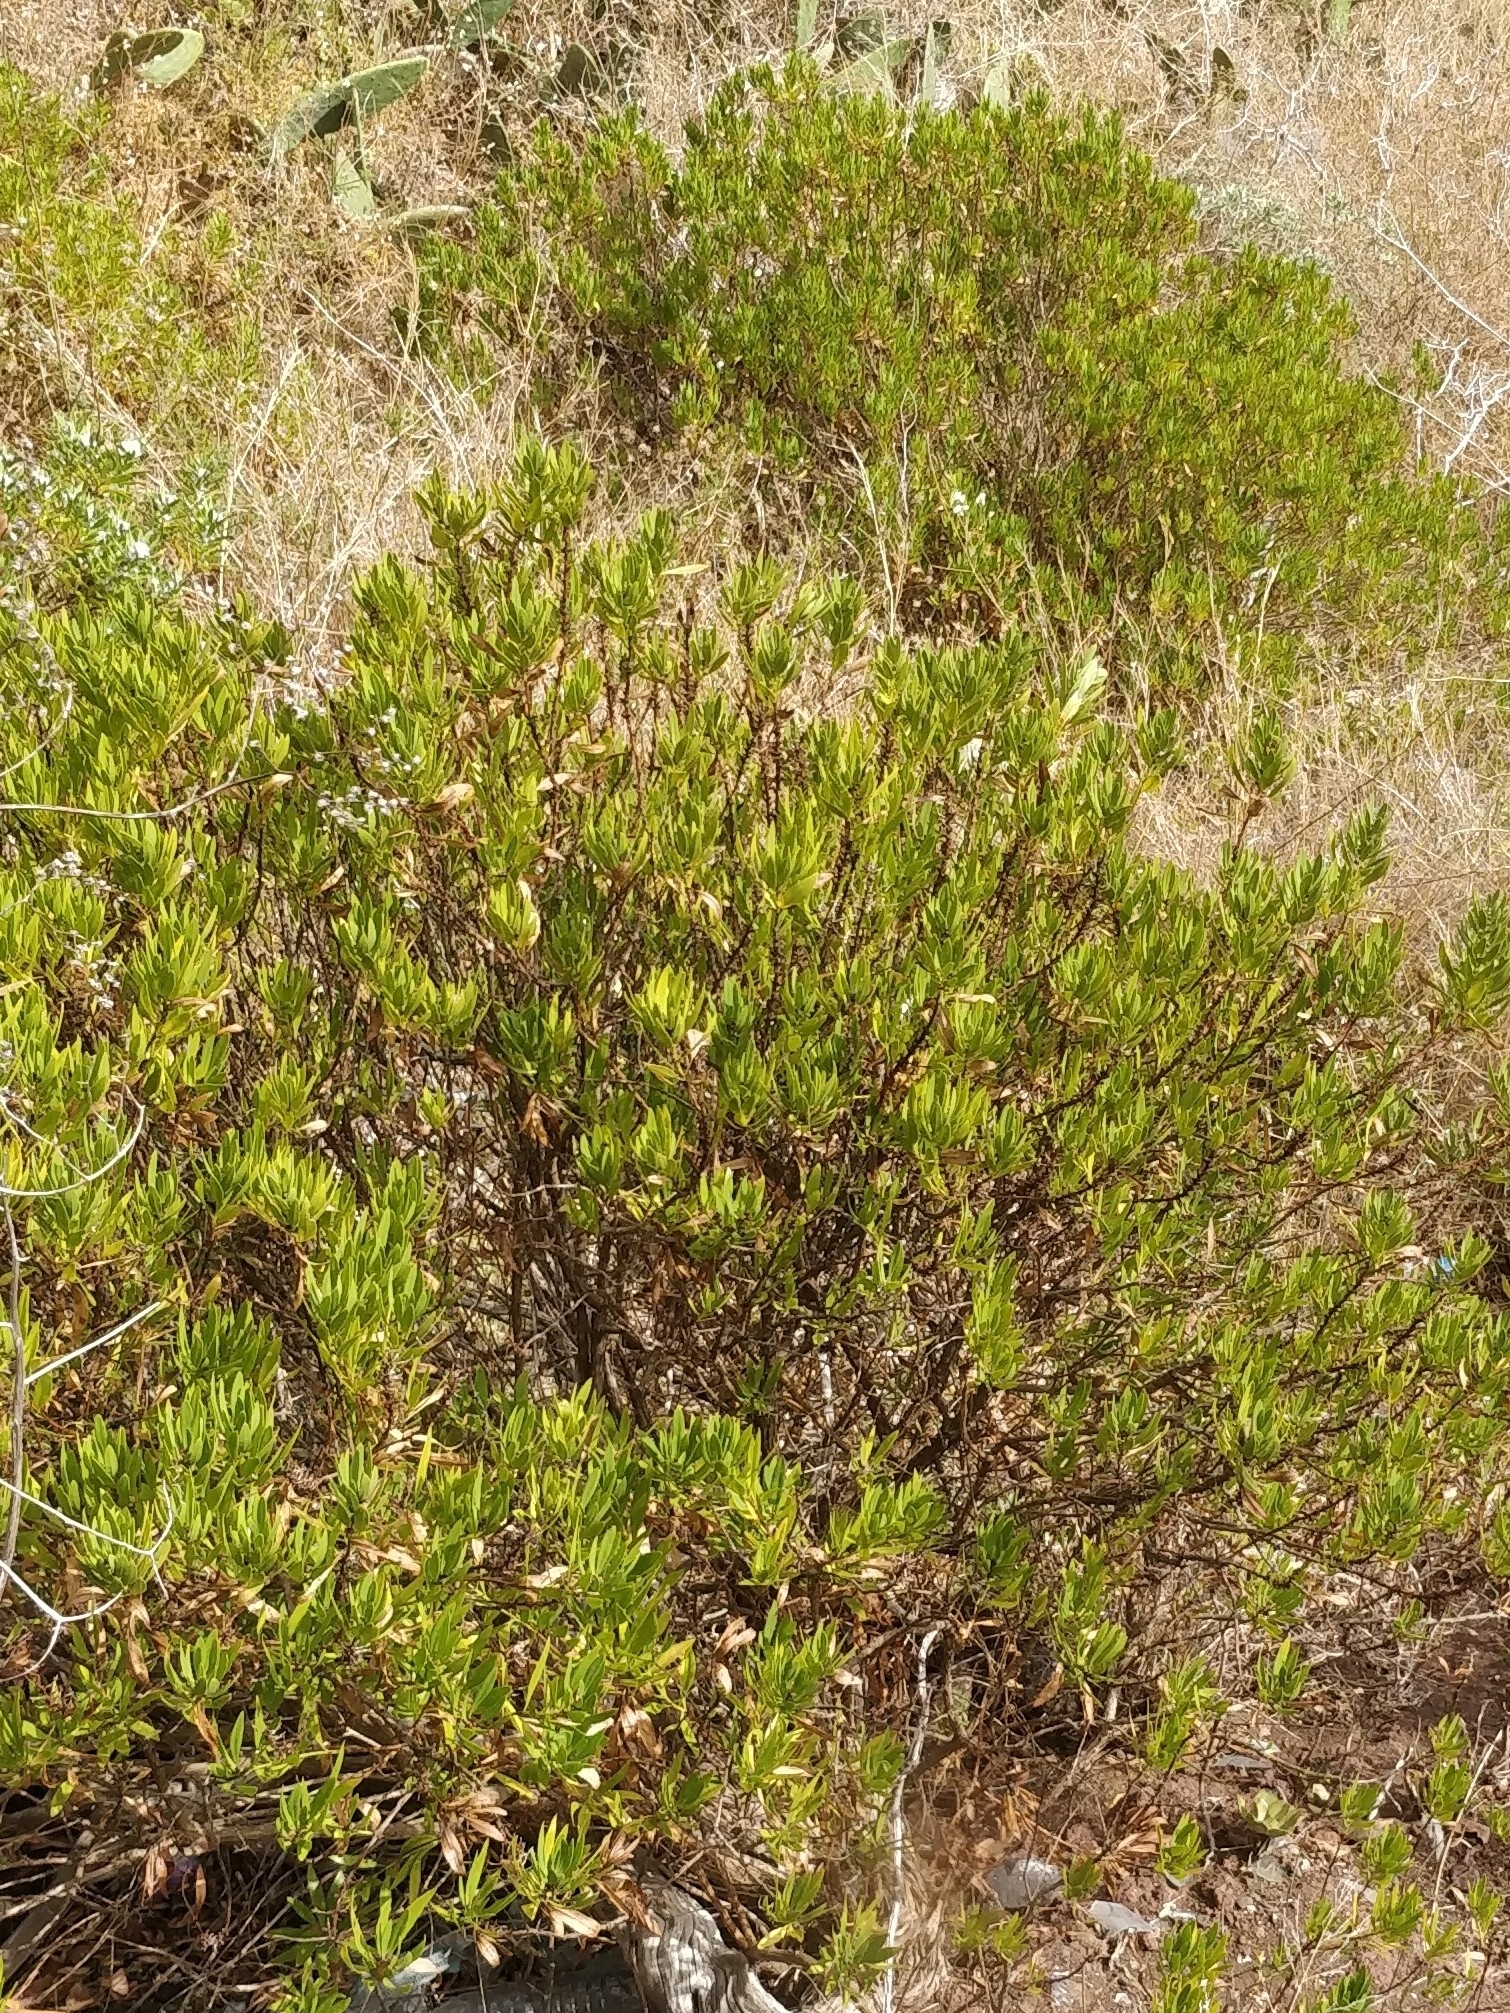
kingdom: Plantae
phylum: Tracheophyta
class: Magnoliopsida
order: Lamiales
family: Plantaginaceae
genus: Globularia
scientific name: Globularia salicina
